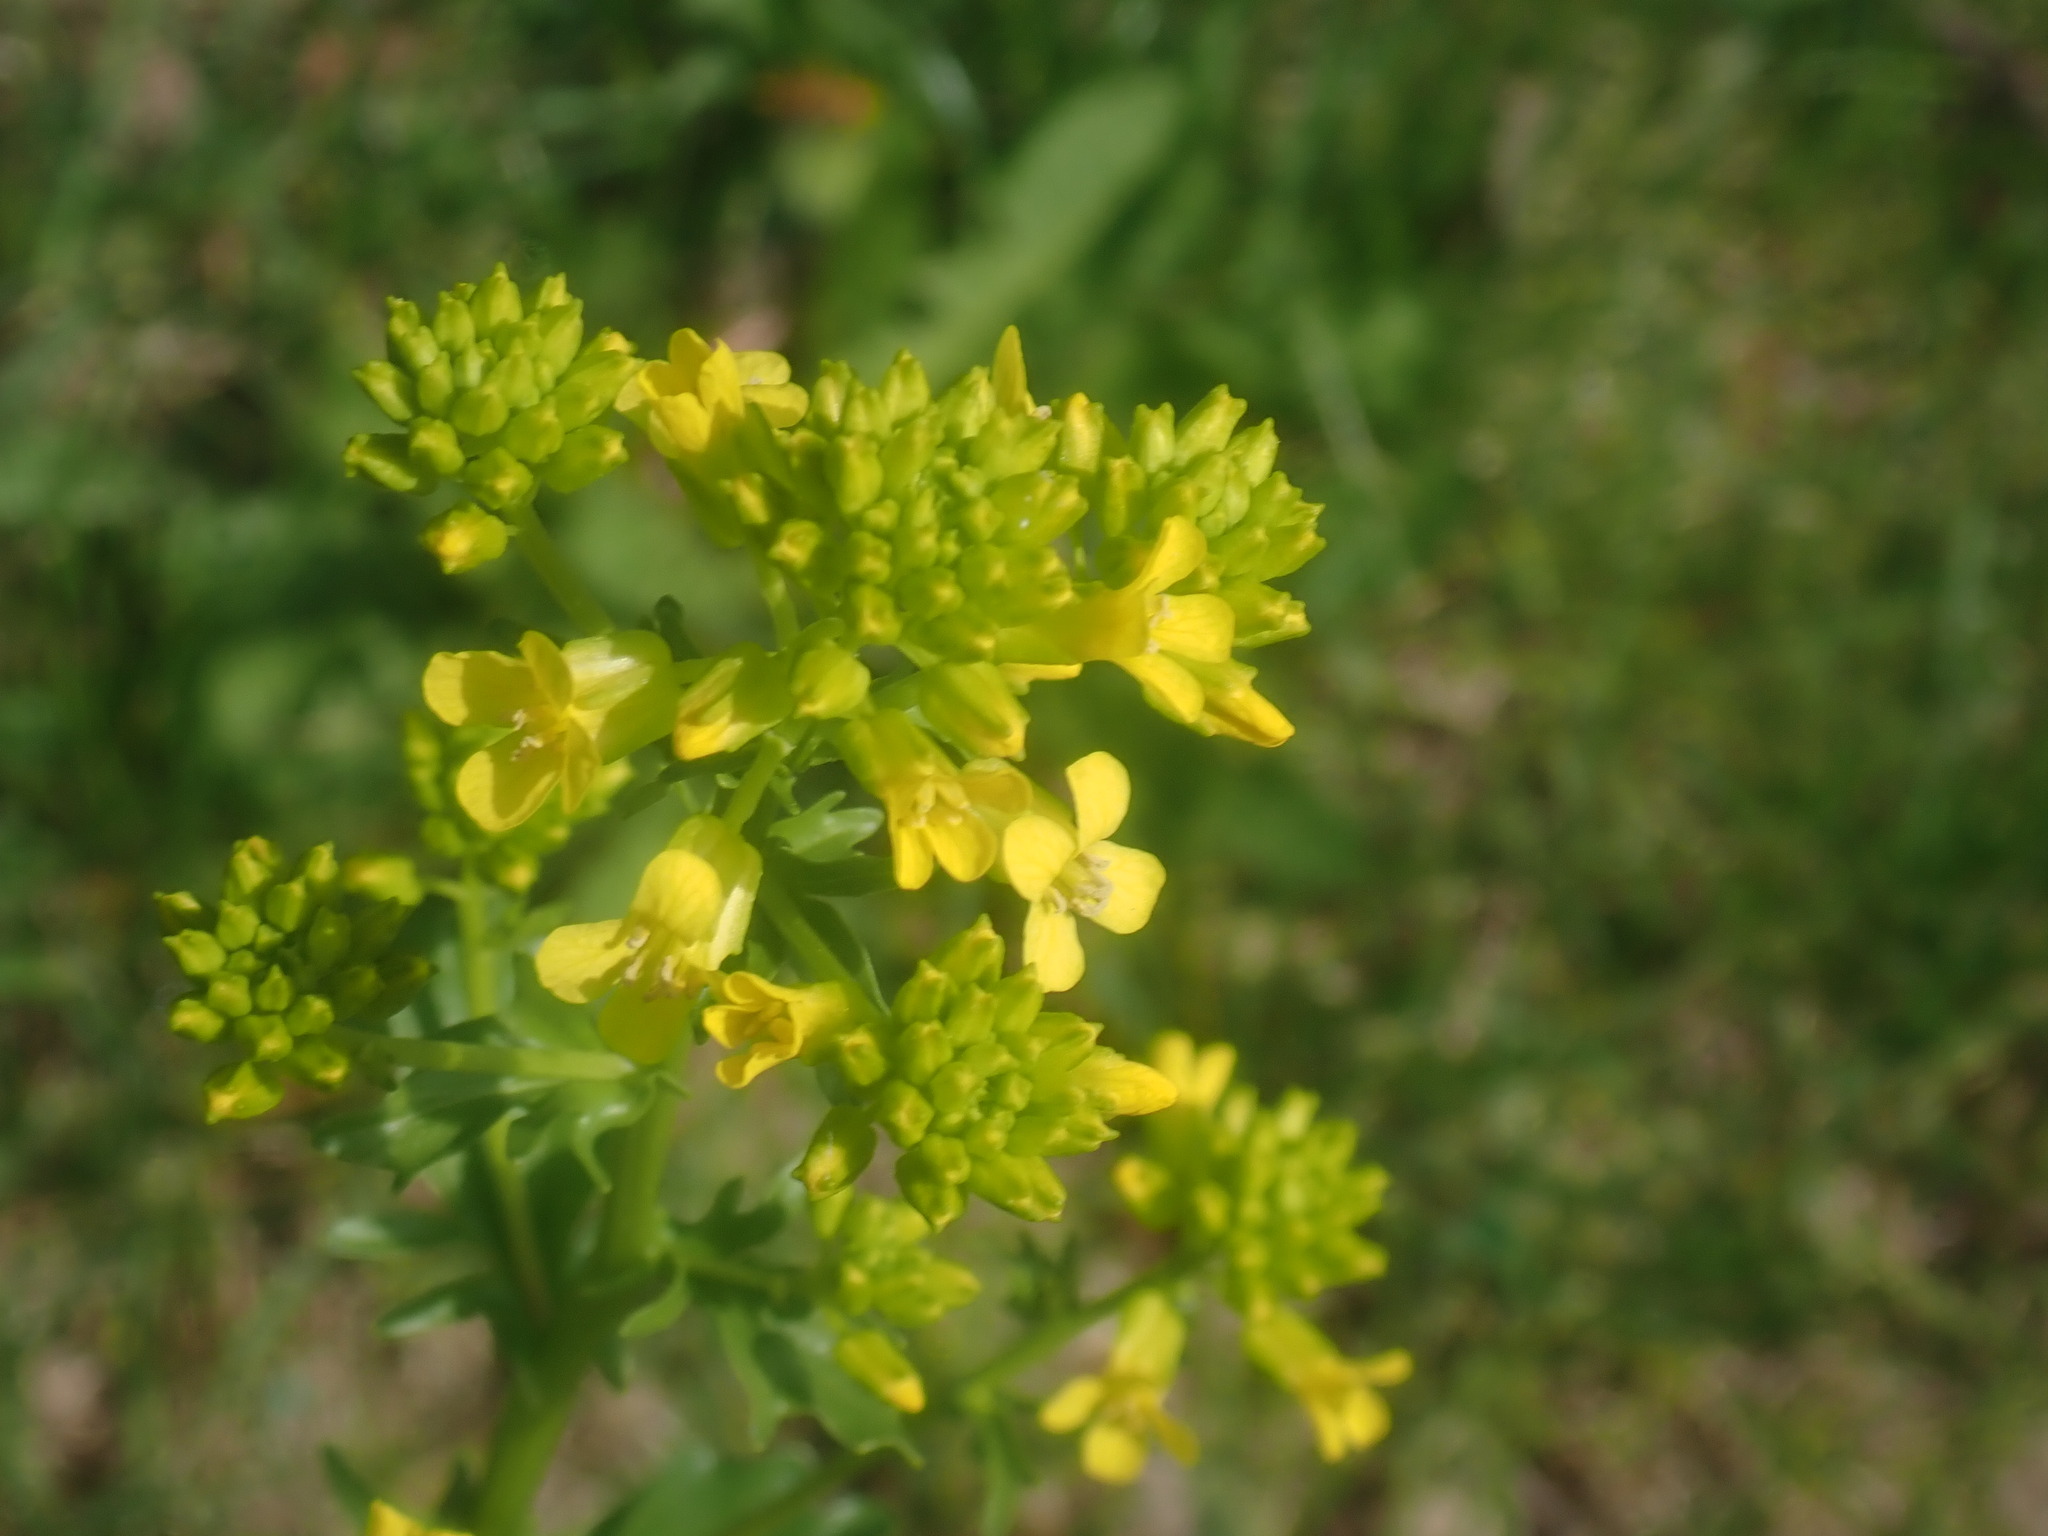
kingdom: Plantae
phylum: Tracheophyta
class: Magnoliopsida
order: Brassicales
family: Brassicaceae
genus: Barbarea
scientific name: Barbarea vulgaris
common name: Cressy-greens
